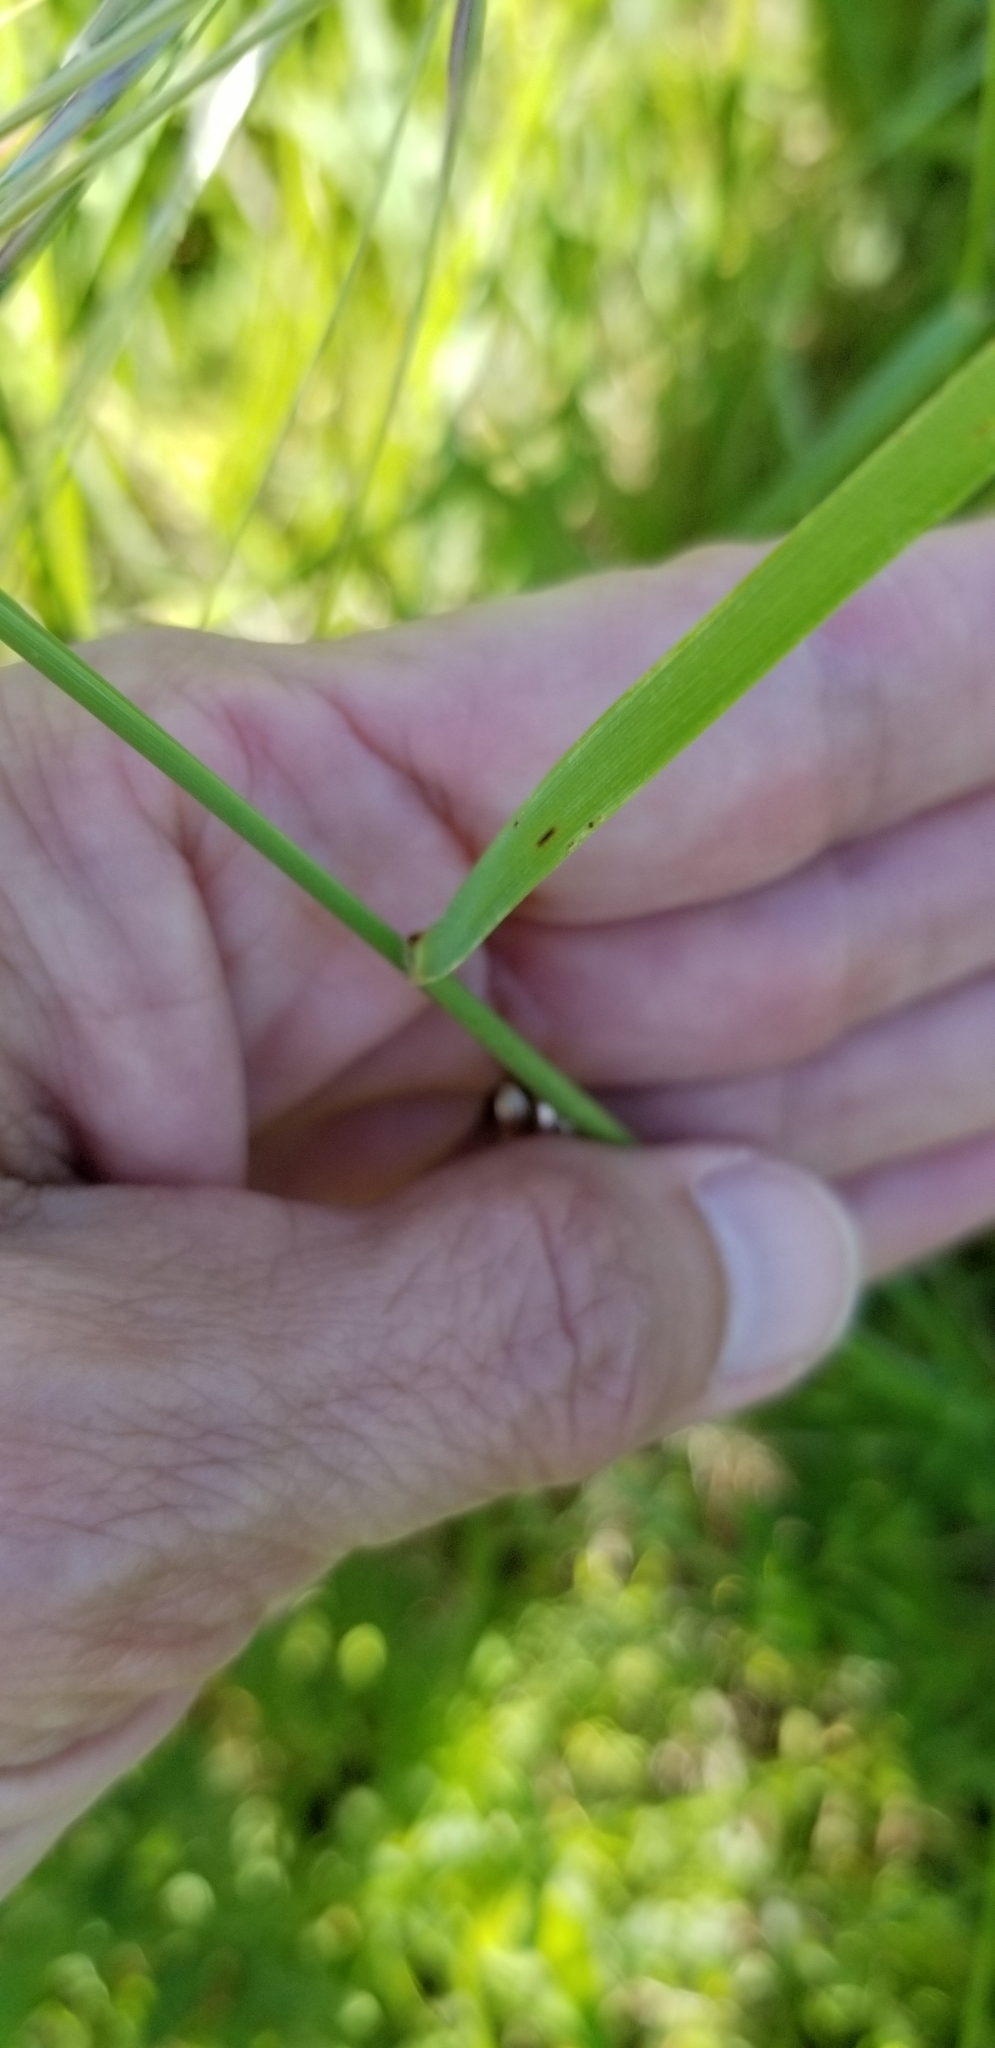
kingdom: Plantae
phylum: Tracheophyta
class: Liliopsida
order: Poales
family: Poaceae
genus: Nassella
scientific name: Nassella leucotricha
